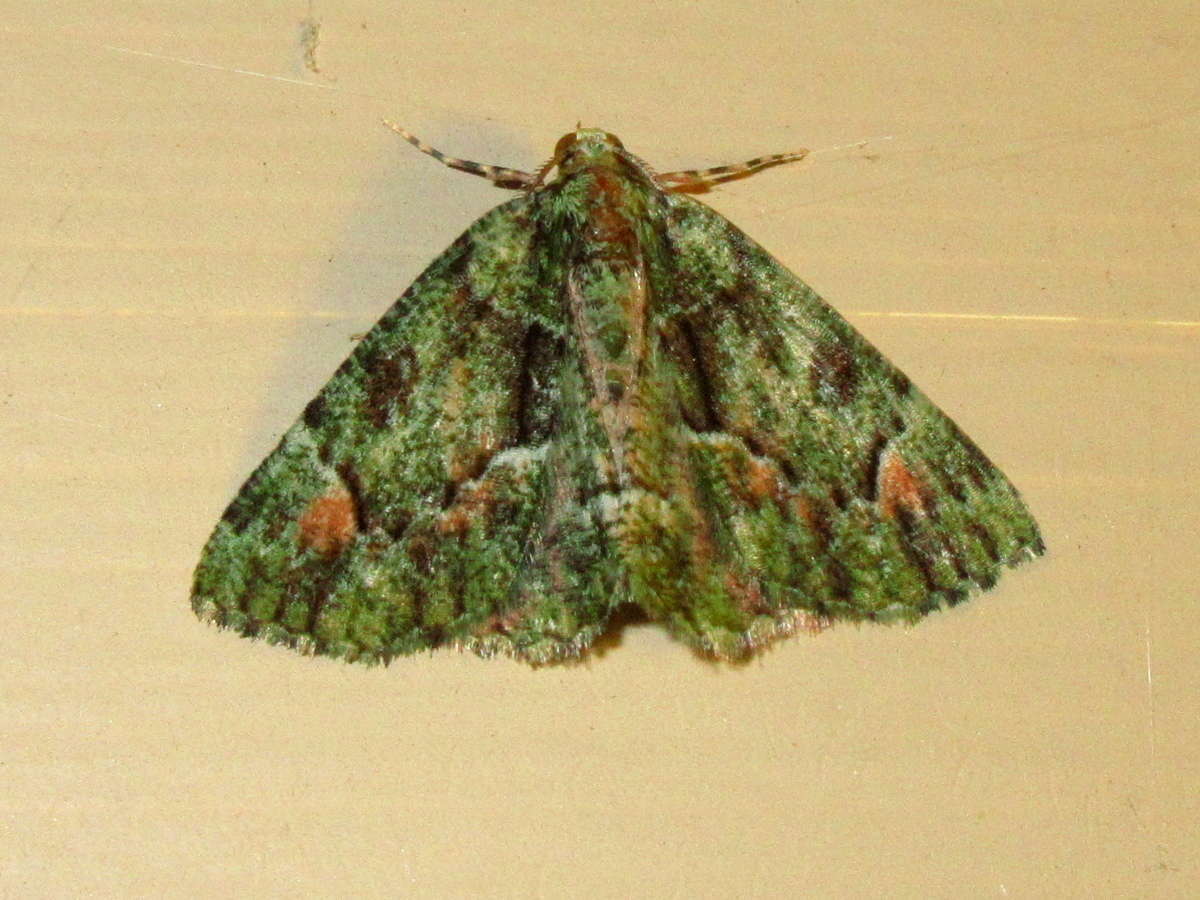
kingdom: Animalia
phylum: Arthropoda
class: Insecta
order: Lepidoptera
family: Geometridae
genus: Aeolochroma
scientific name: Aeolochroma metarhodata
